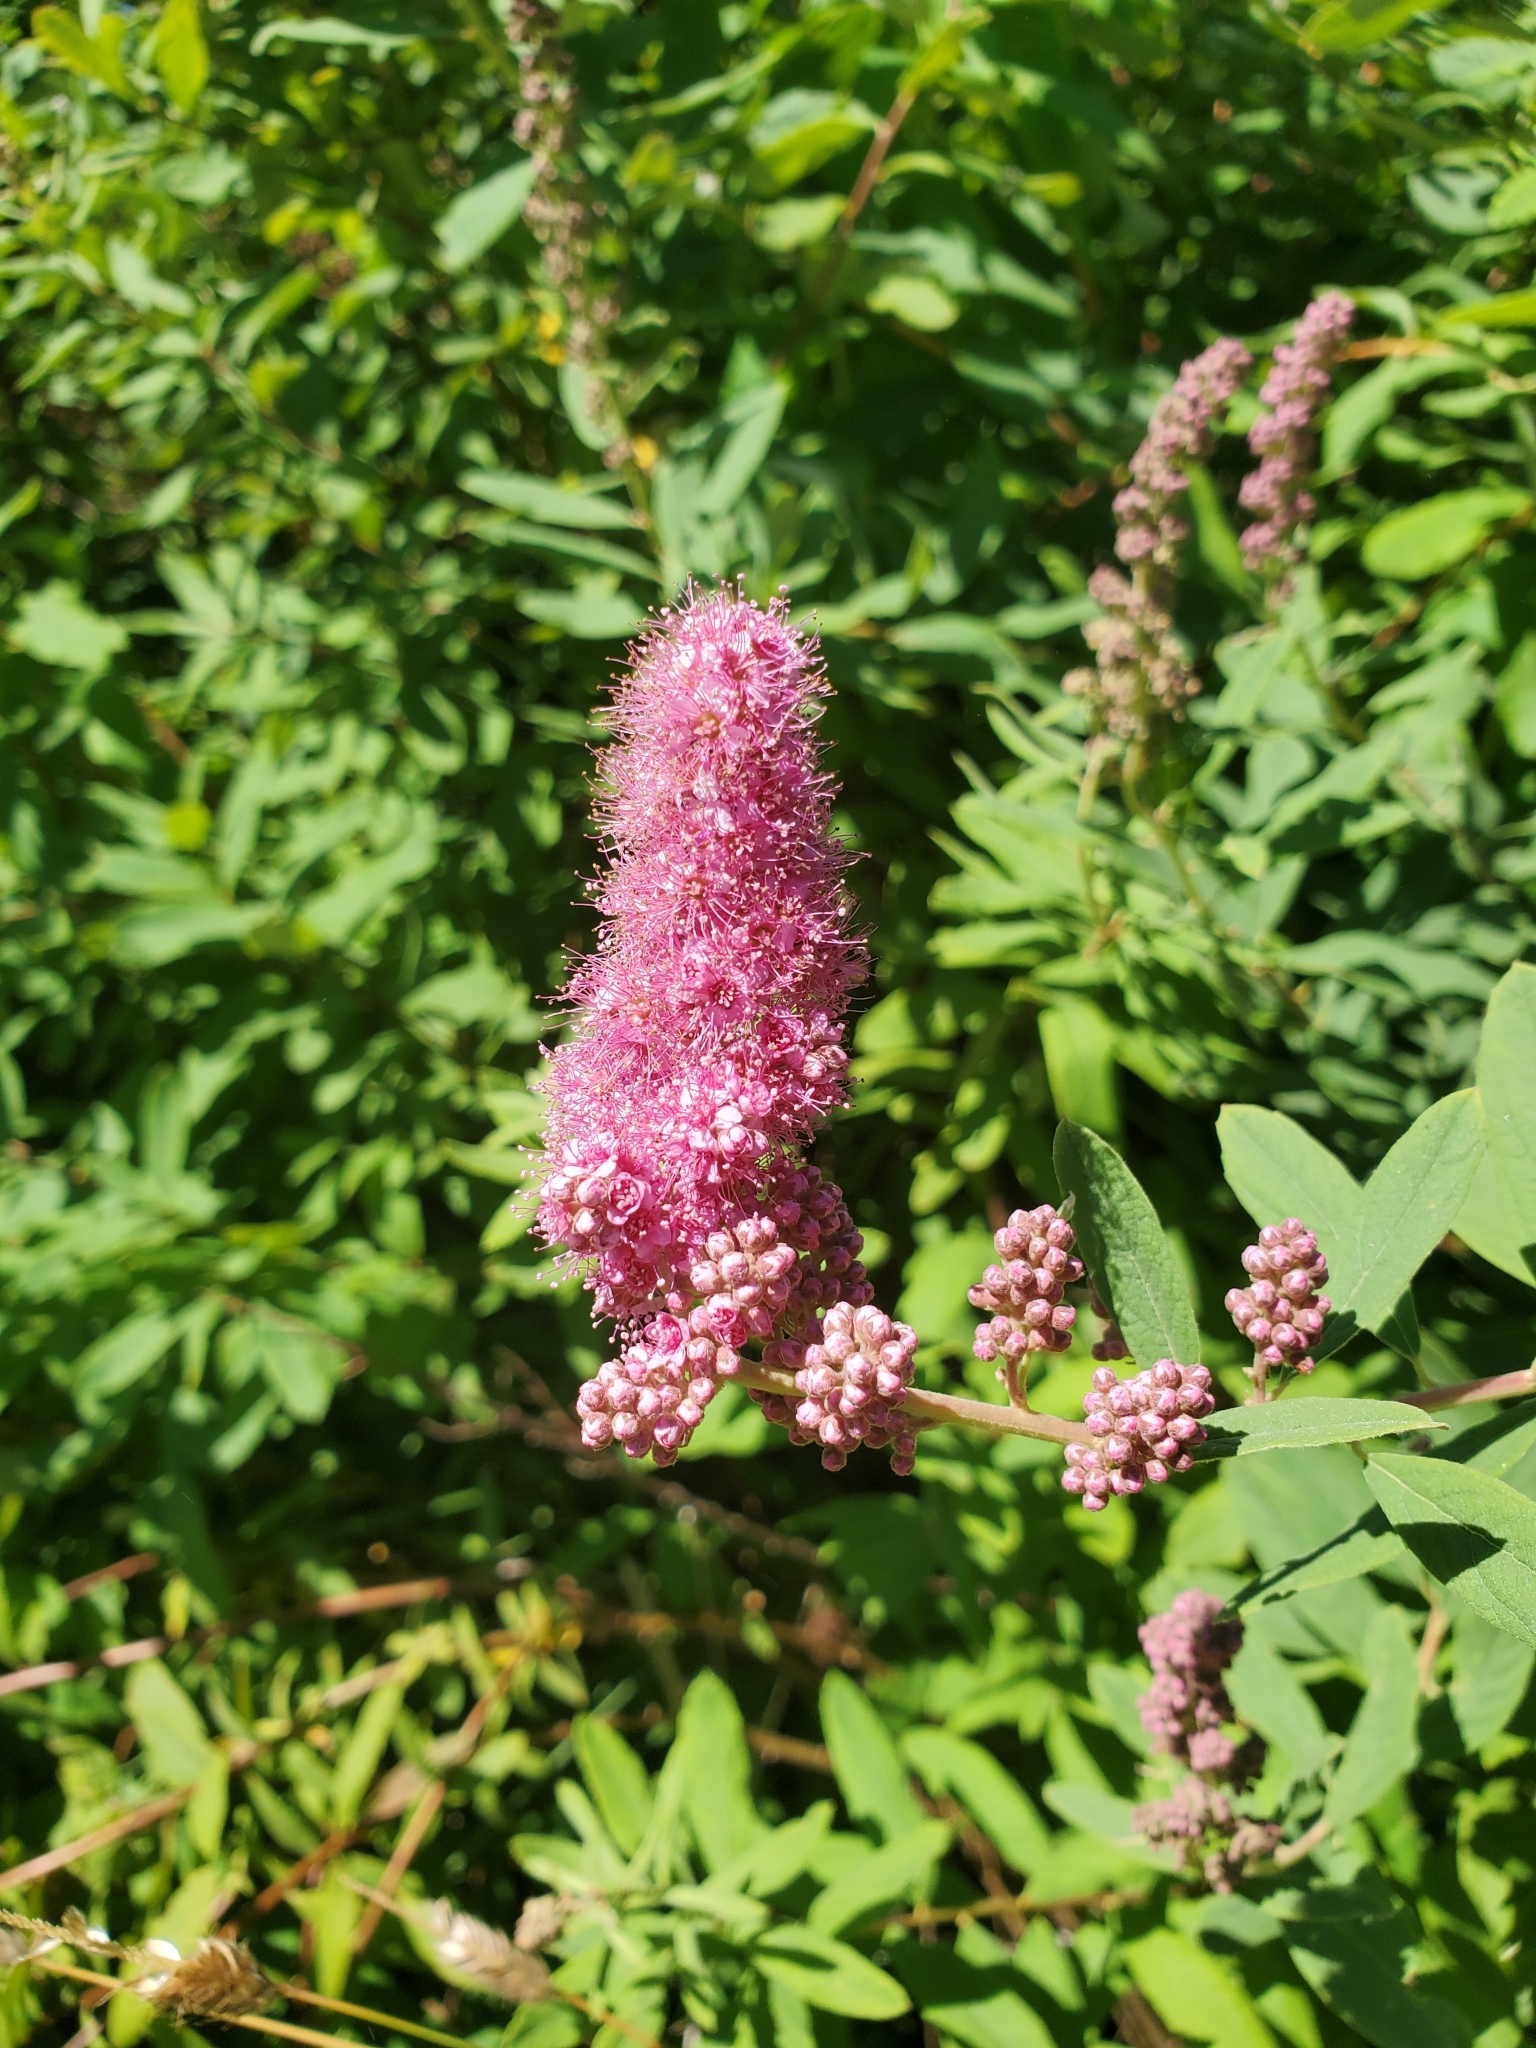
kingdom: Plantae
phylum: Tracheophyta
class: Magnoliopsida
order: Rosales
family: Rosaceae
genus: Spiraea
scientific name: Spiraea douglasii
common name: Steeplebush
